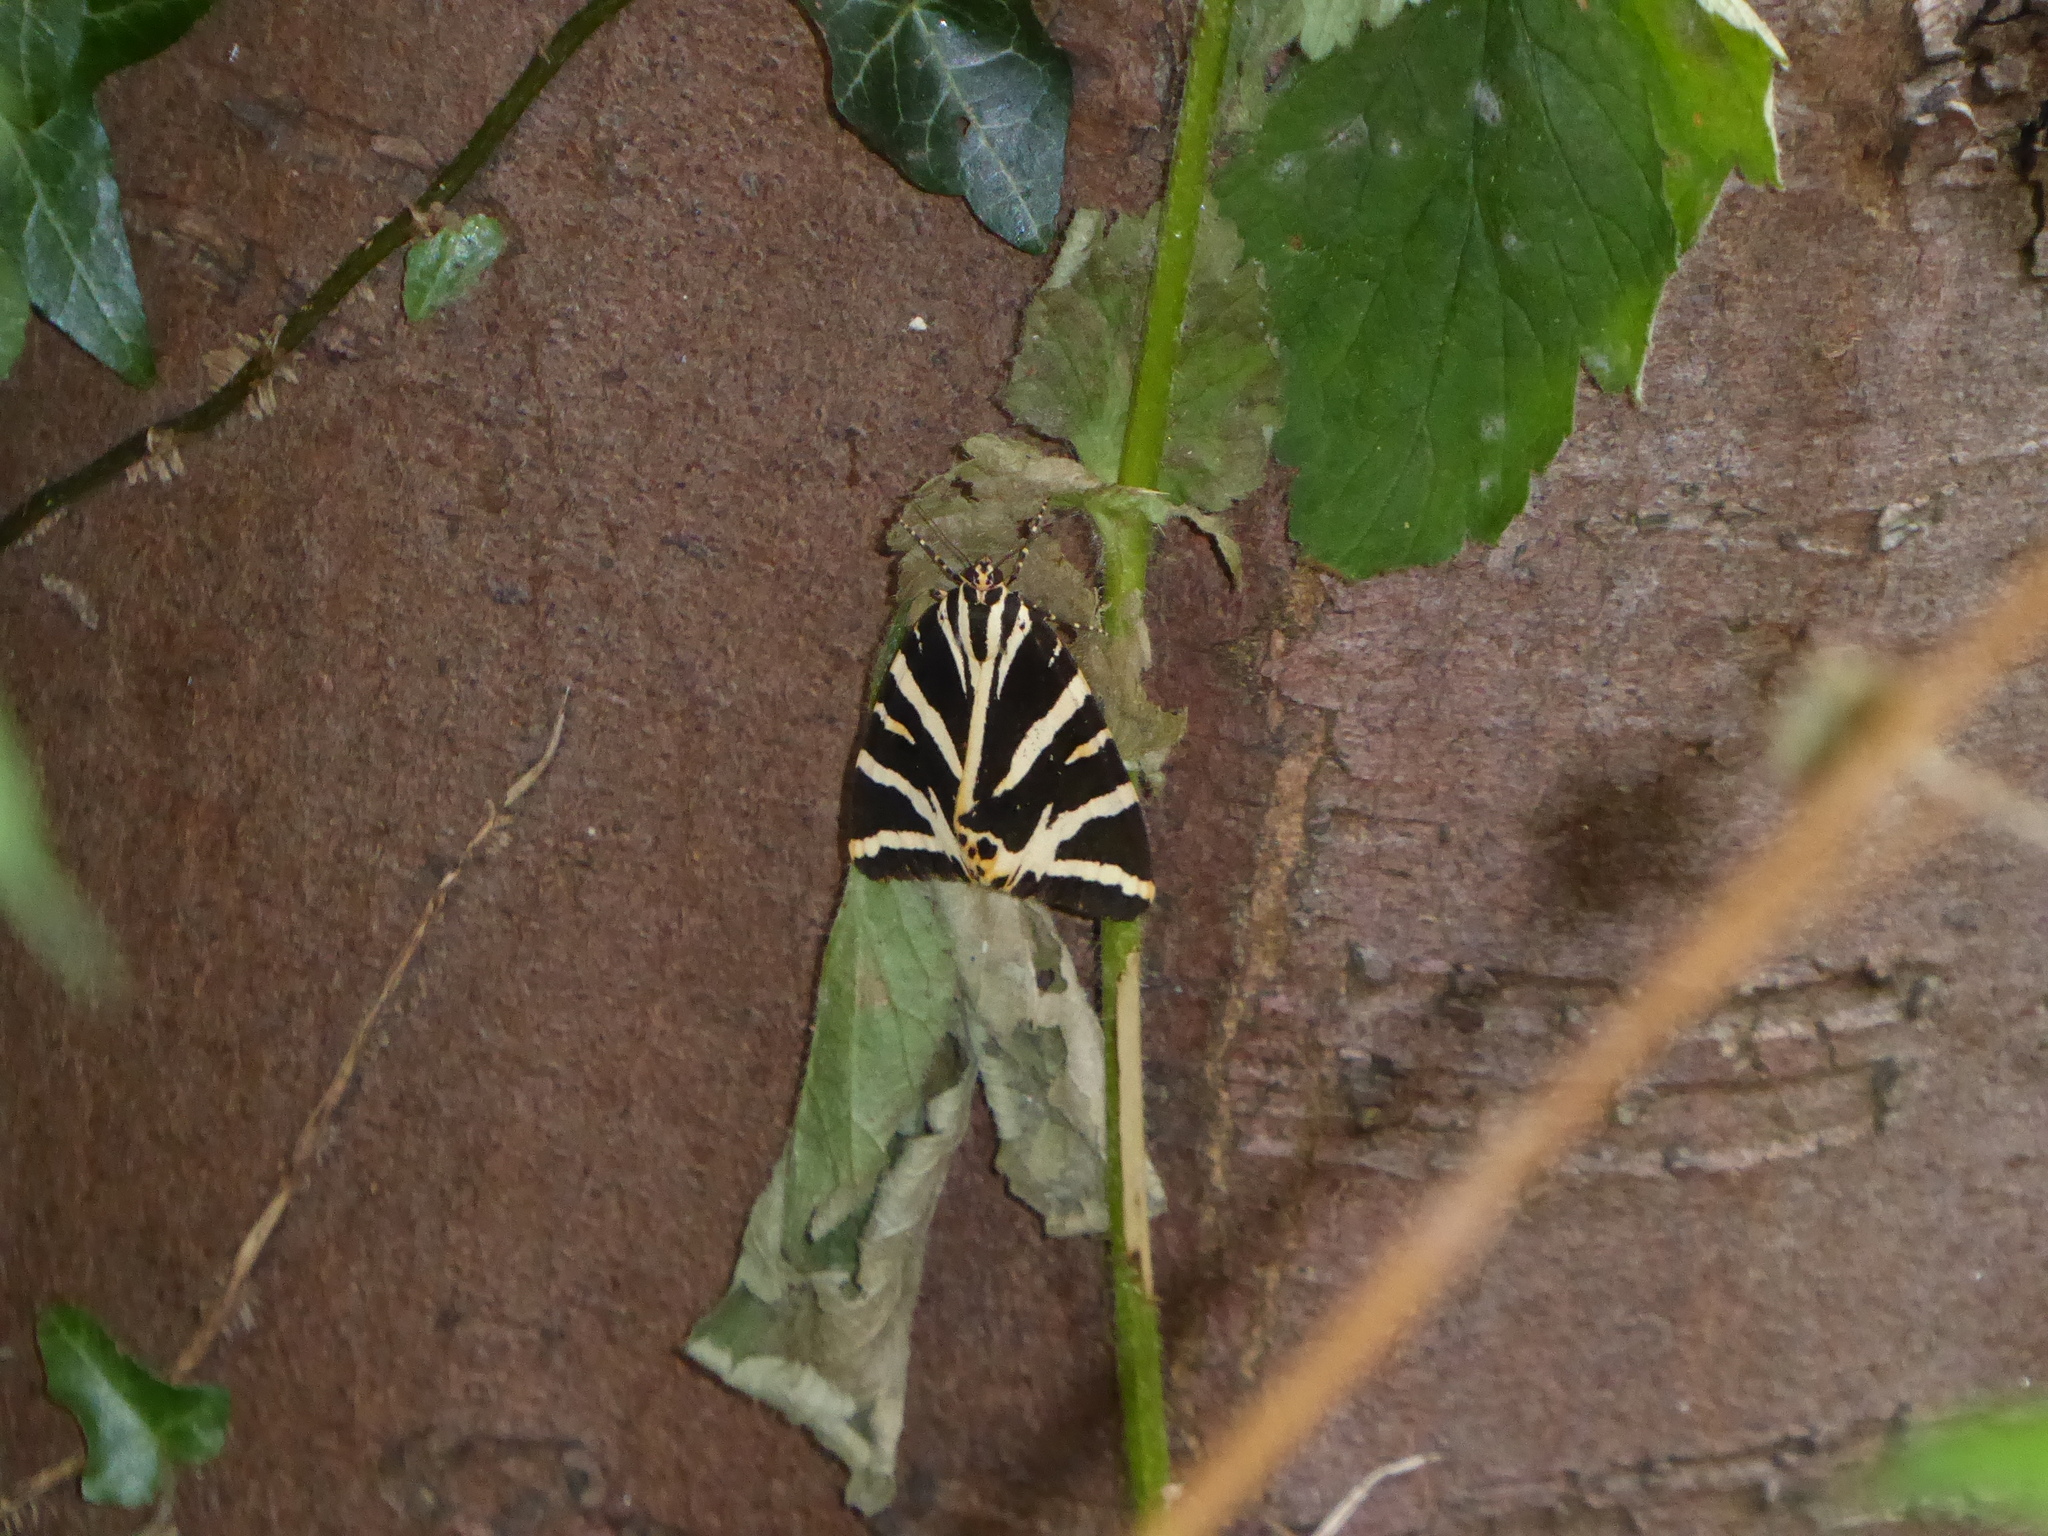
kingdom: Animalia
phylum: Arthropoda
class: Insecta
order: Lepidoptera
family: Erebidae
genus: Euplagia
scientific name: Euplagia quadripunctaria
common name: Jersey tiger
